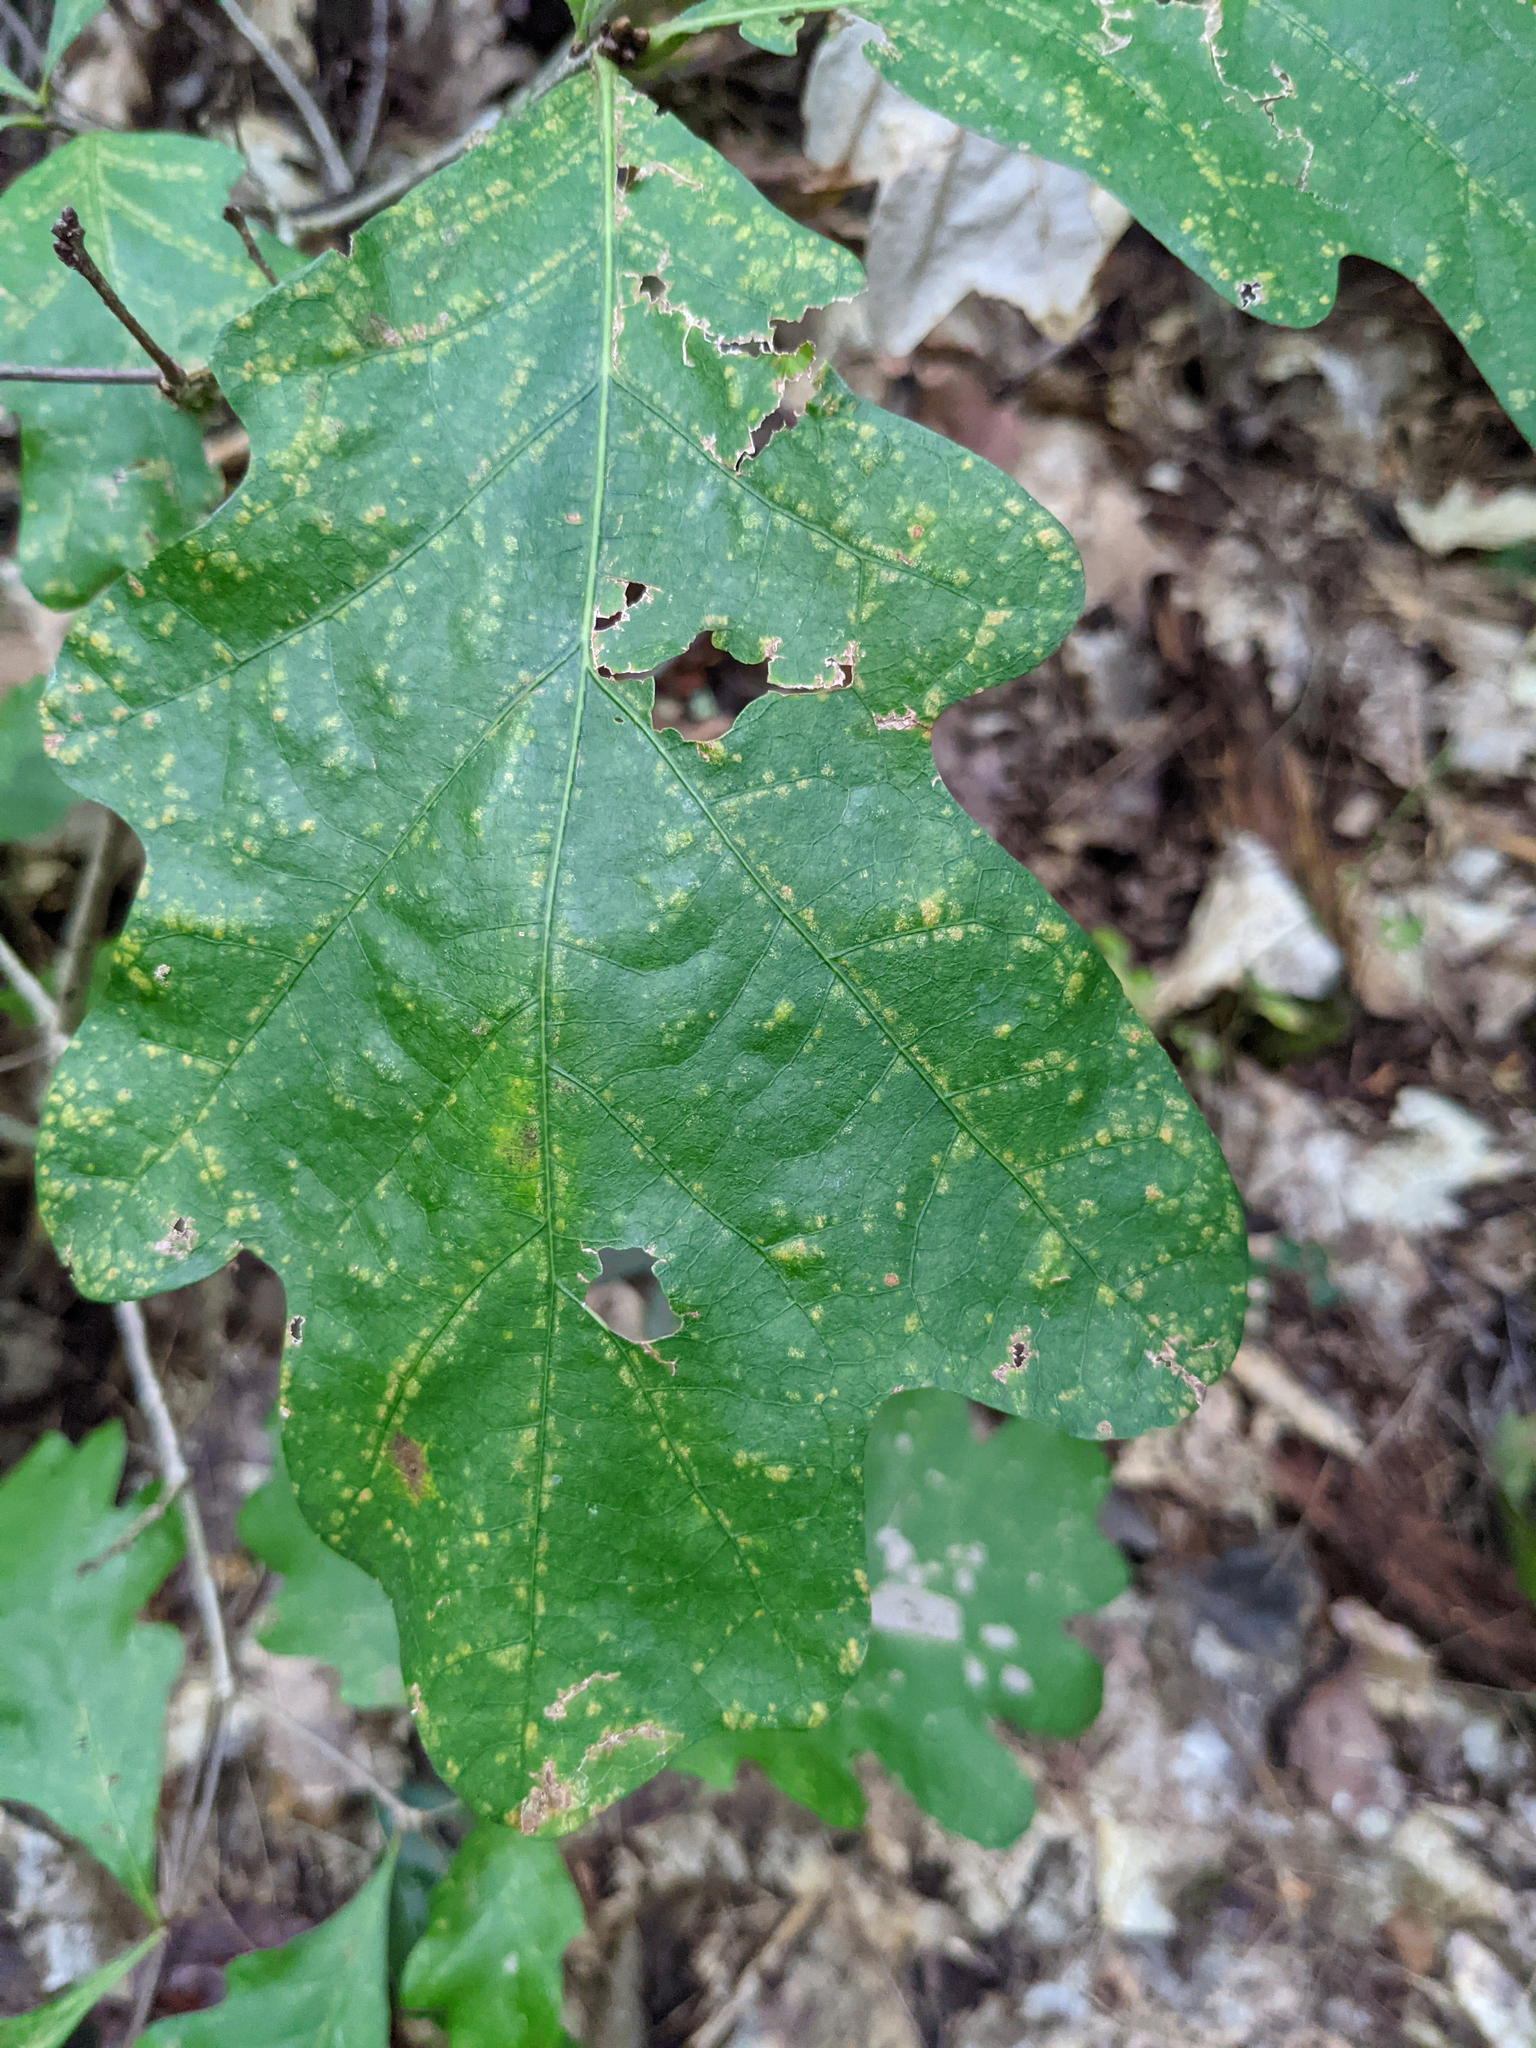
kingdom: Plantae
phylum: Tracheophyta
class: Magnoliopsida
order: Fagales
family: Fagaceae
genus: Quercus
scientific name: Quercus alba
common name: White oak
